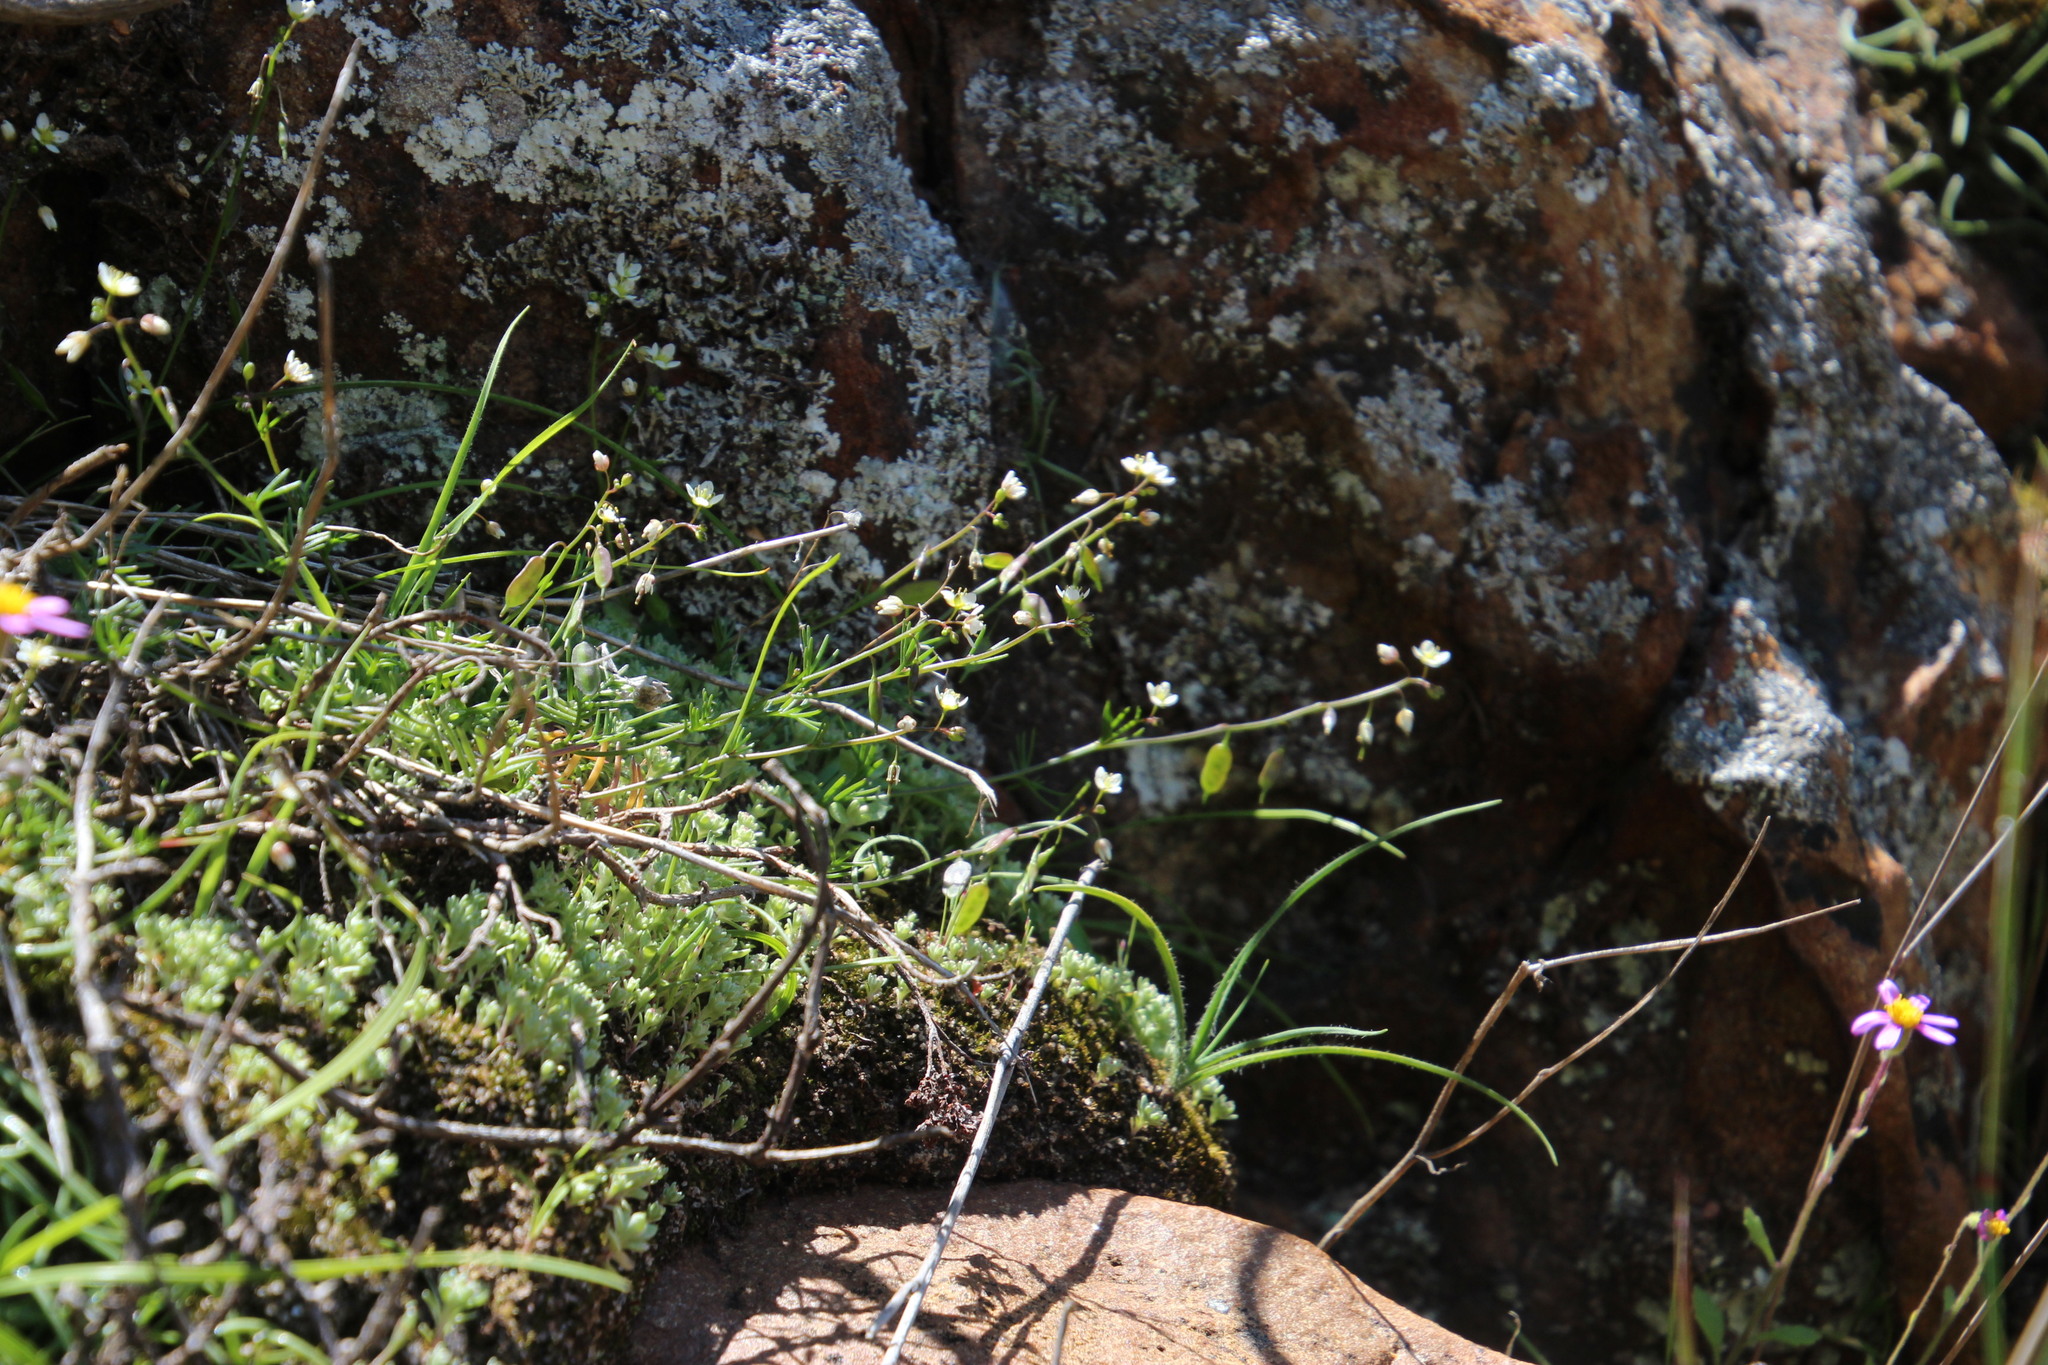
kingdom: Plantae
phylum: Tracheophyta
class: Magnoliopsida
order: Brassicales
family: Brassicaceae
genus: Heliophila
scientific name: Heliophila diffusa
